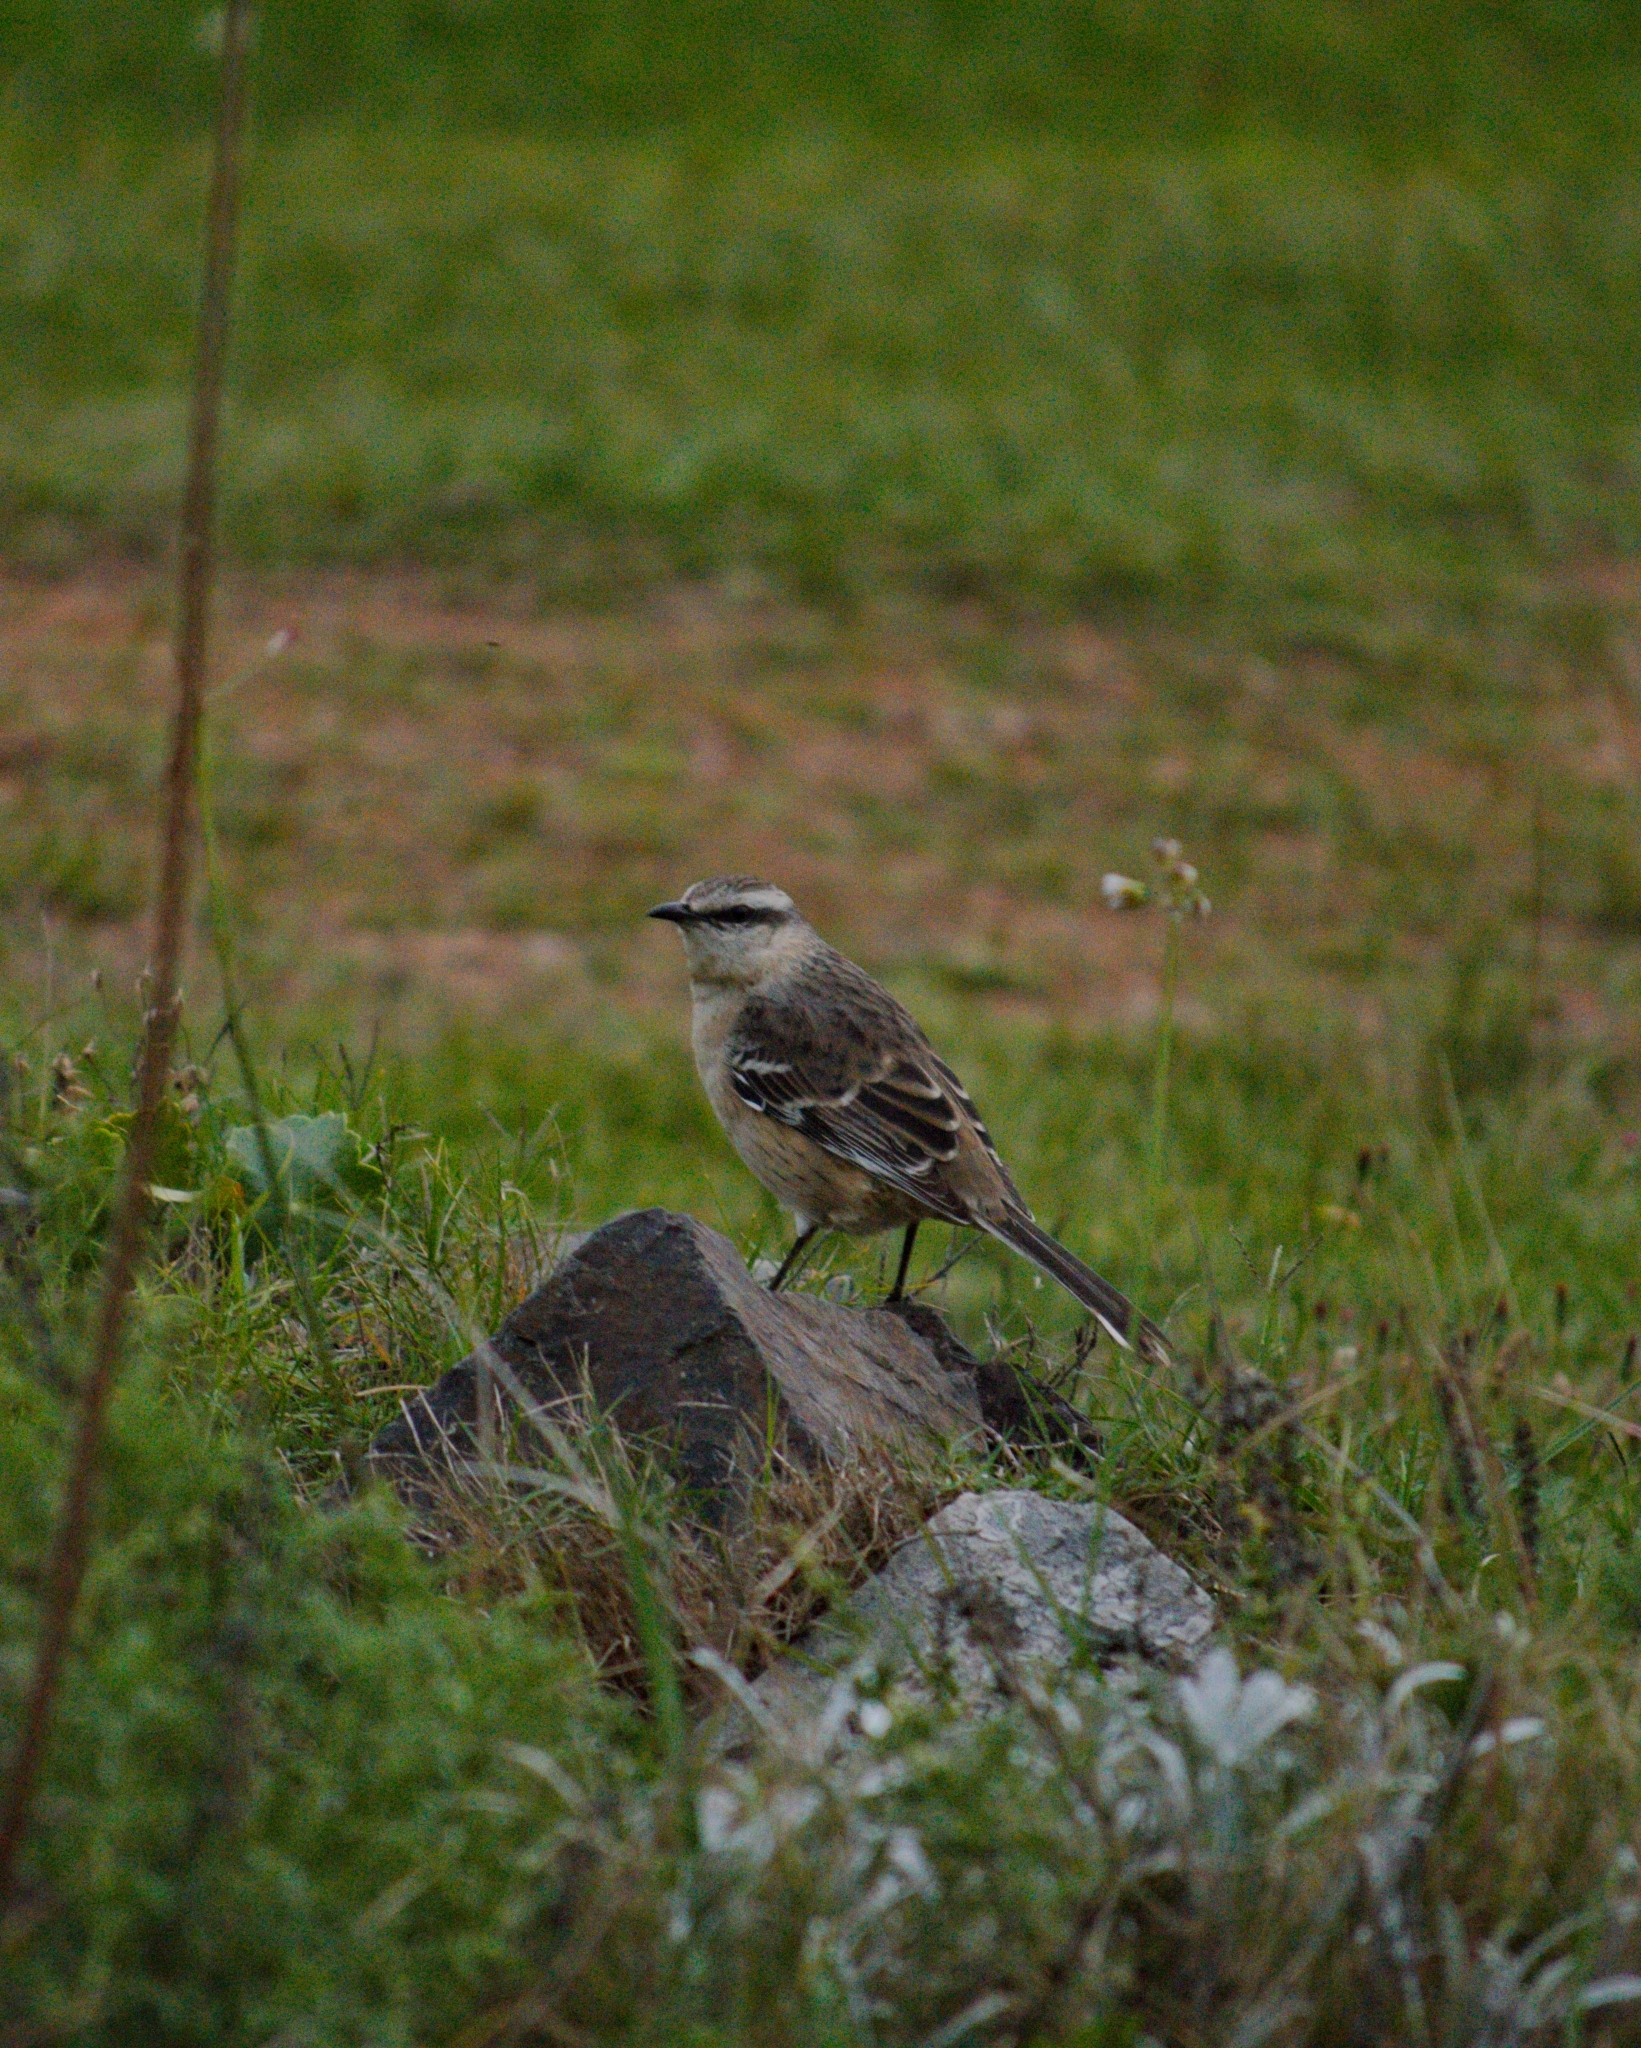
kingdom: Animalia
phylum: Chordata
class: Aves
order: Passeriformes
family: Mimidae
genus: Mimus
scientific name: Mimus saturninus
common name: Chalk-browed mockingbird
